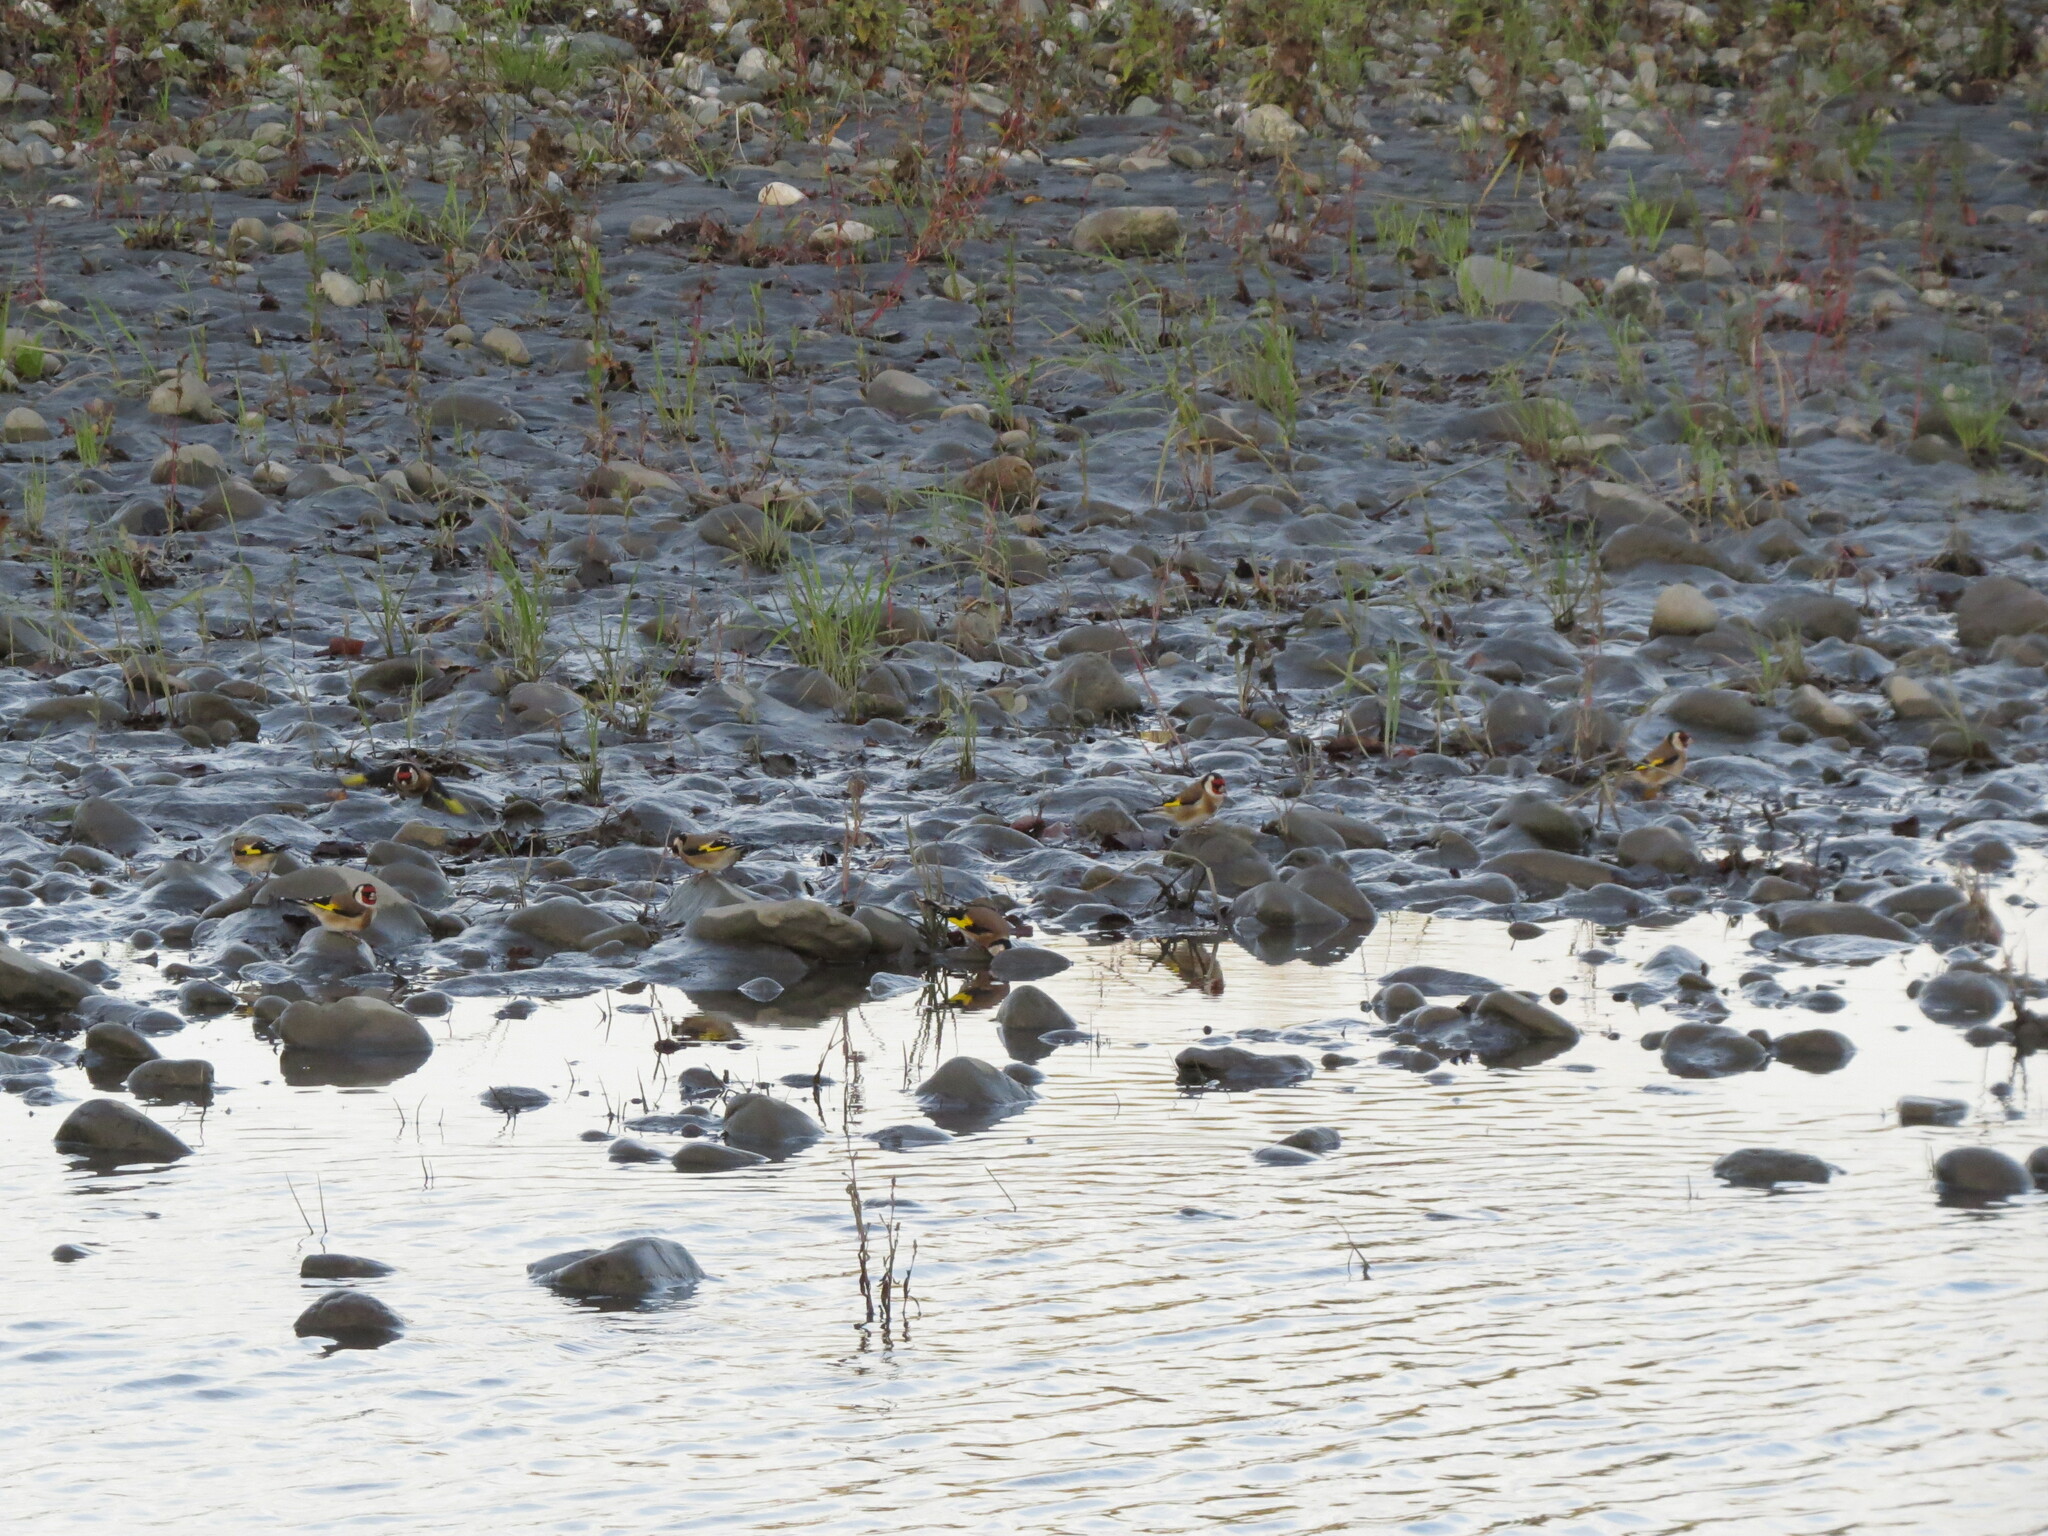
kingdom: Animalia
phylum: Chordata
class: Aves
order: Passeriformes
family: Fringillidae
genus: Carduelis
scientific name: Carduelis carduelis
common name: European goldfinch
